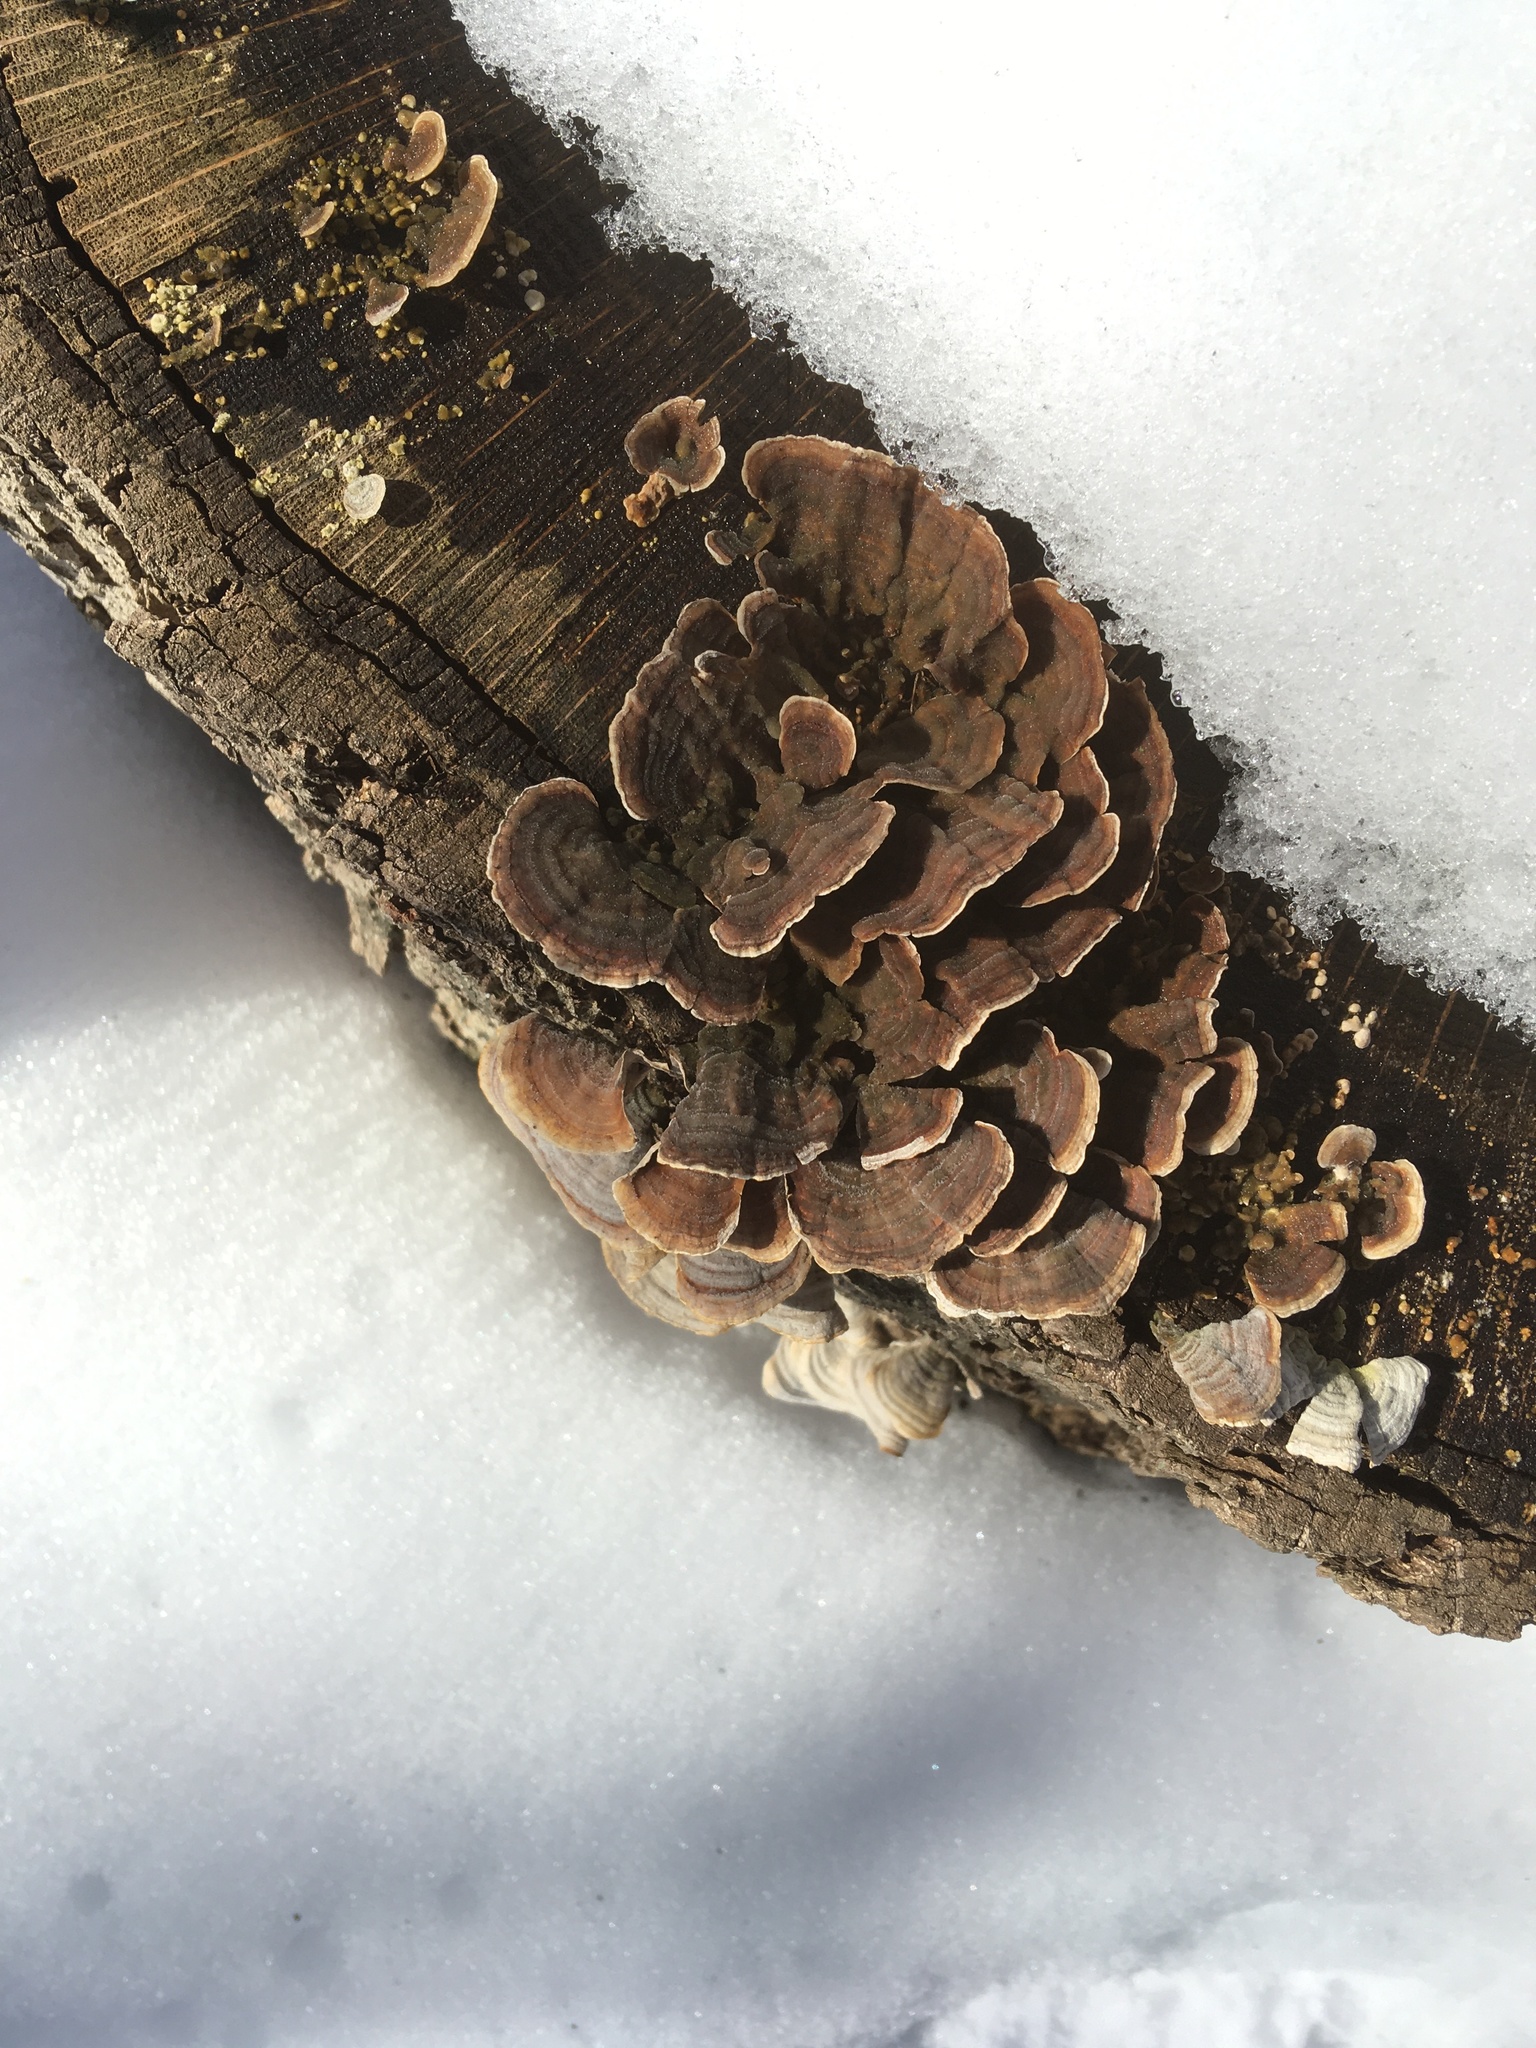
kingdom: Fungi
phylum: Basidiomycota
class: Agaricomycetes
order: Gloeophyllales
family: Gloeophyllaceae
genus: Gloeophyllum
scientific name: Gloeophyllum sepiarium
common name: Conifer mazegill
